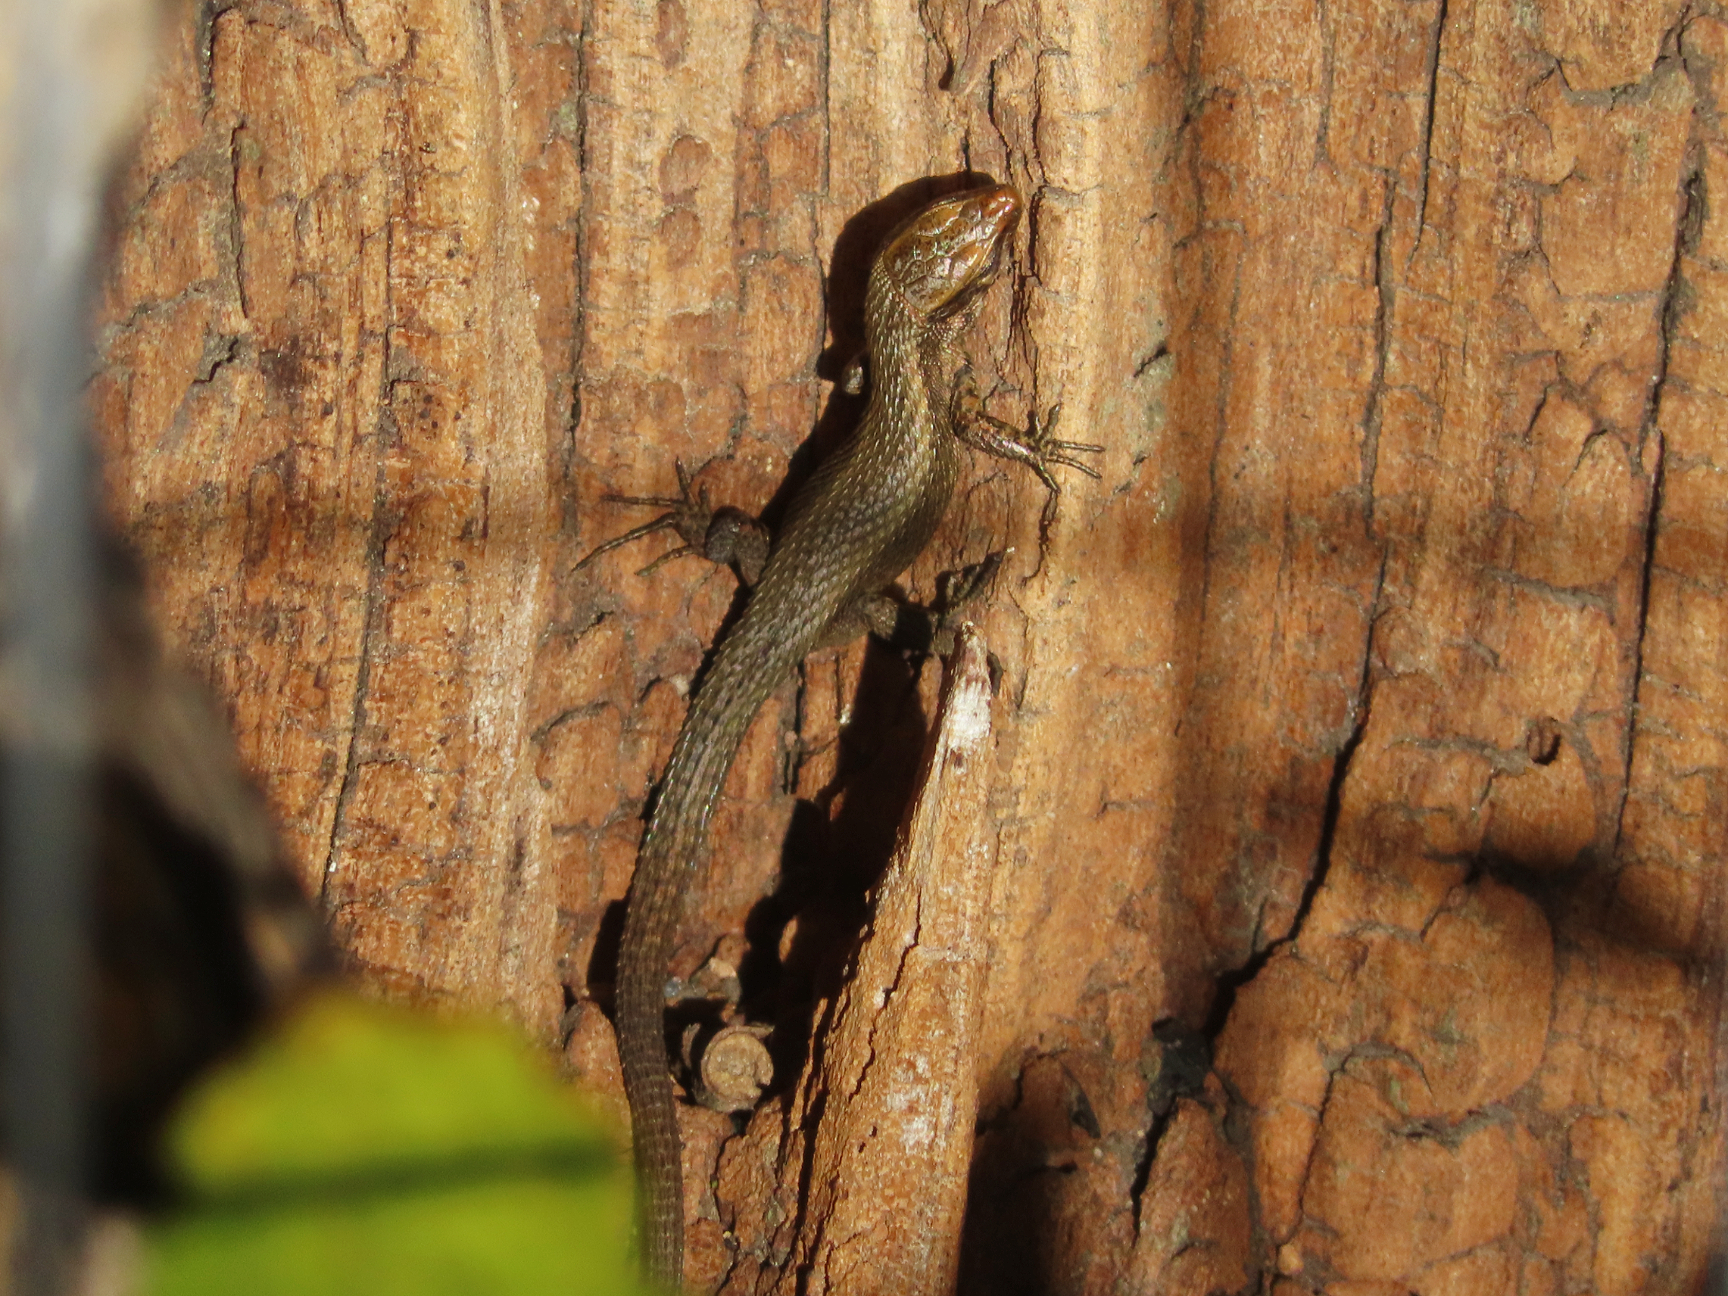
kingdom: Animalia
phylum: Chordata
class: Squamata
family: Lacertidae
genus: Algyroides
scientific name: Algyroides moreoticus
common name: Greek algyroides
